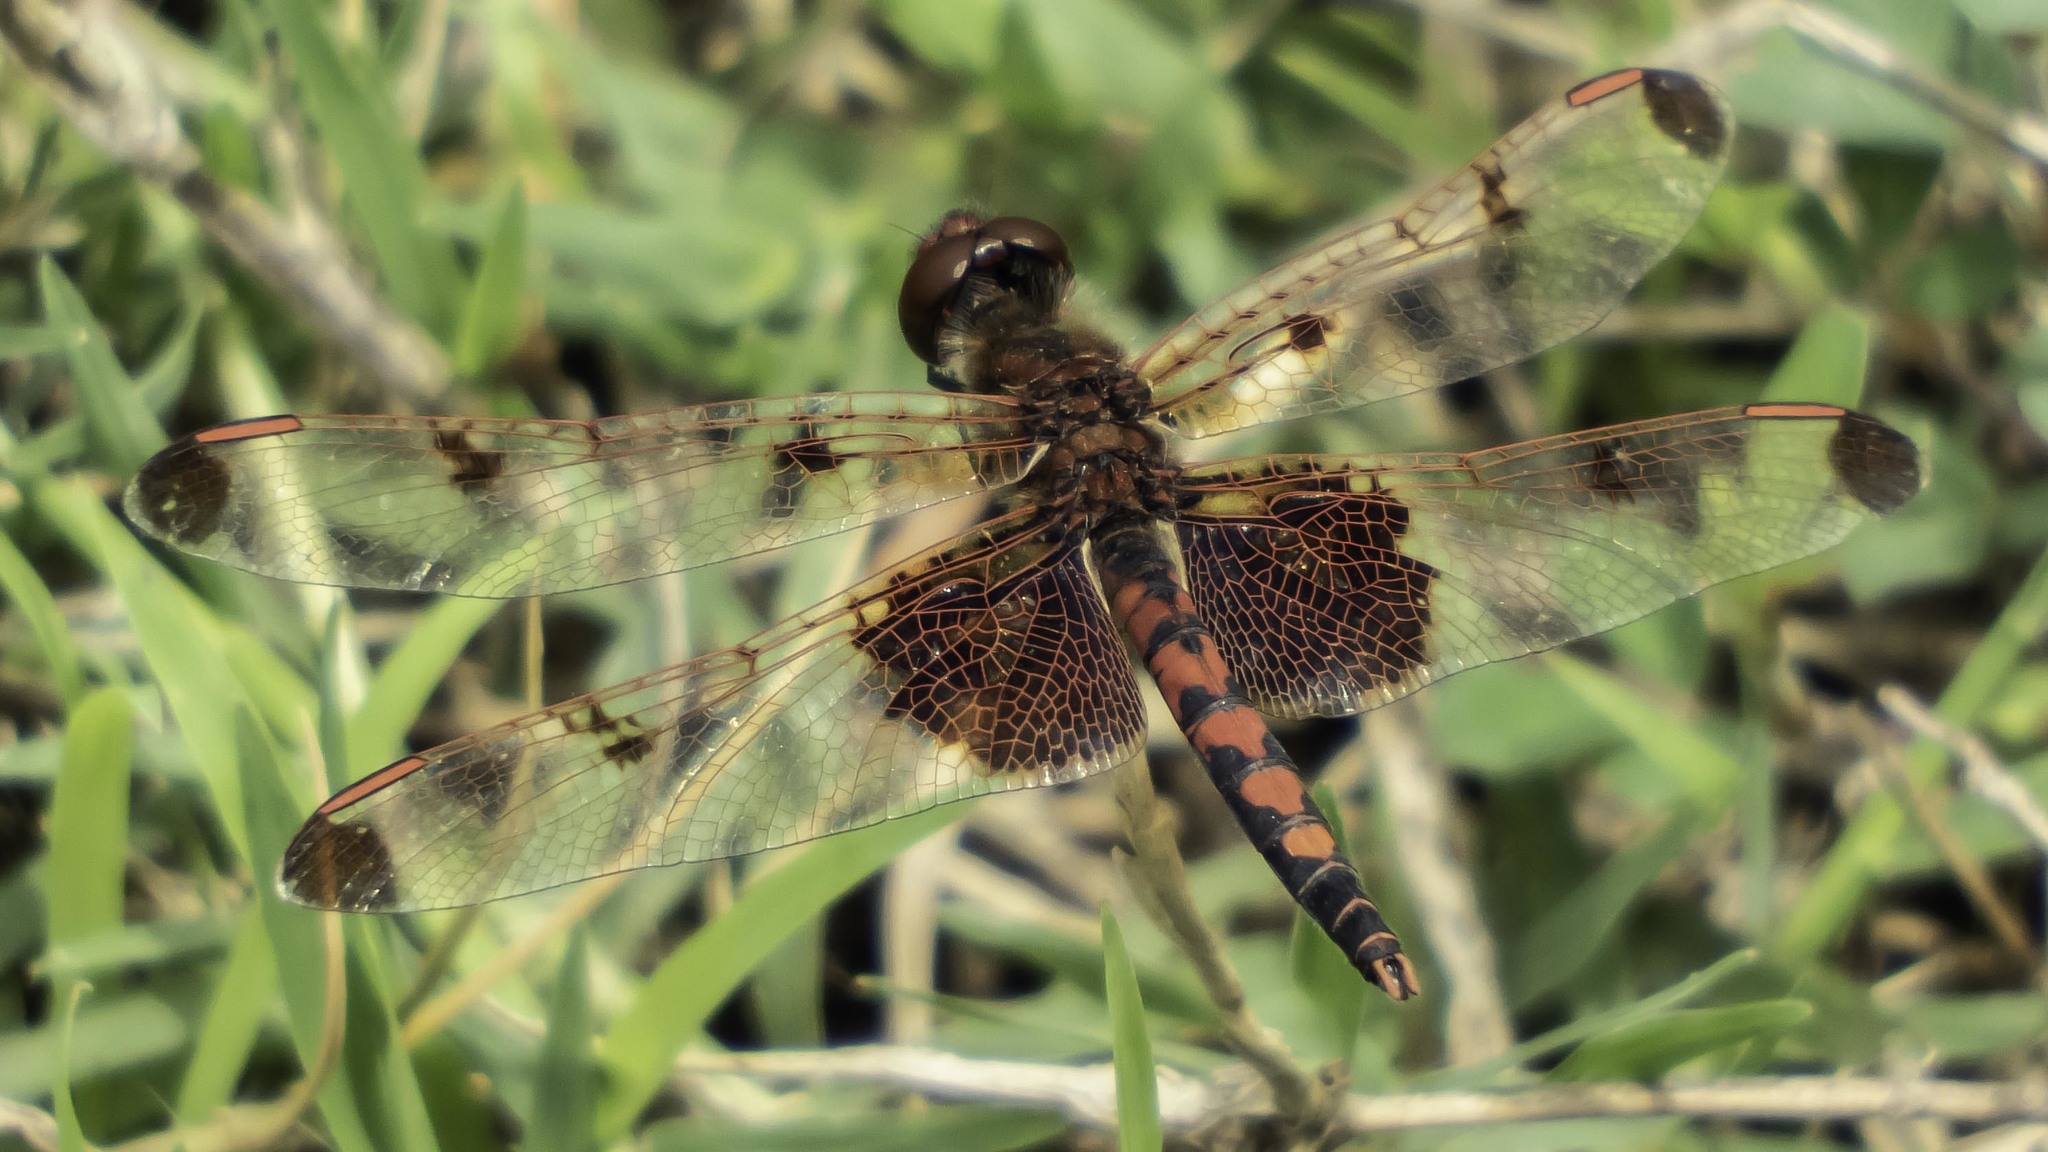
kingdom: Animalia
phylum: Arthropoda
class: Insecta
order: Odonata
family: Libellulidae
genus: Celithemis
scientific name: Celithemis elisa
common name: Calico pennant
